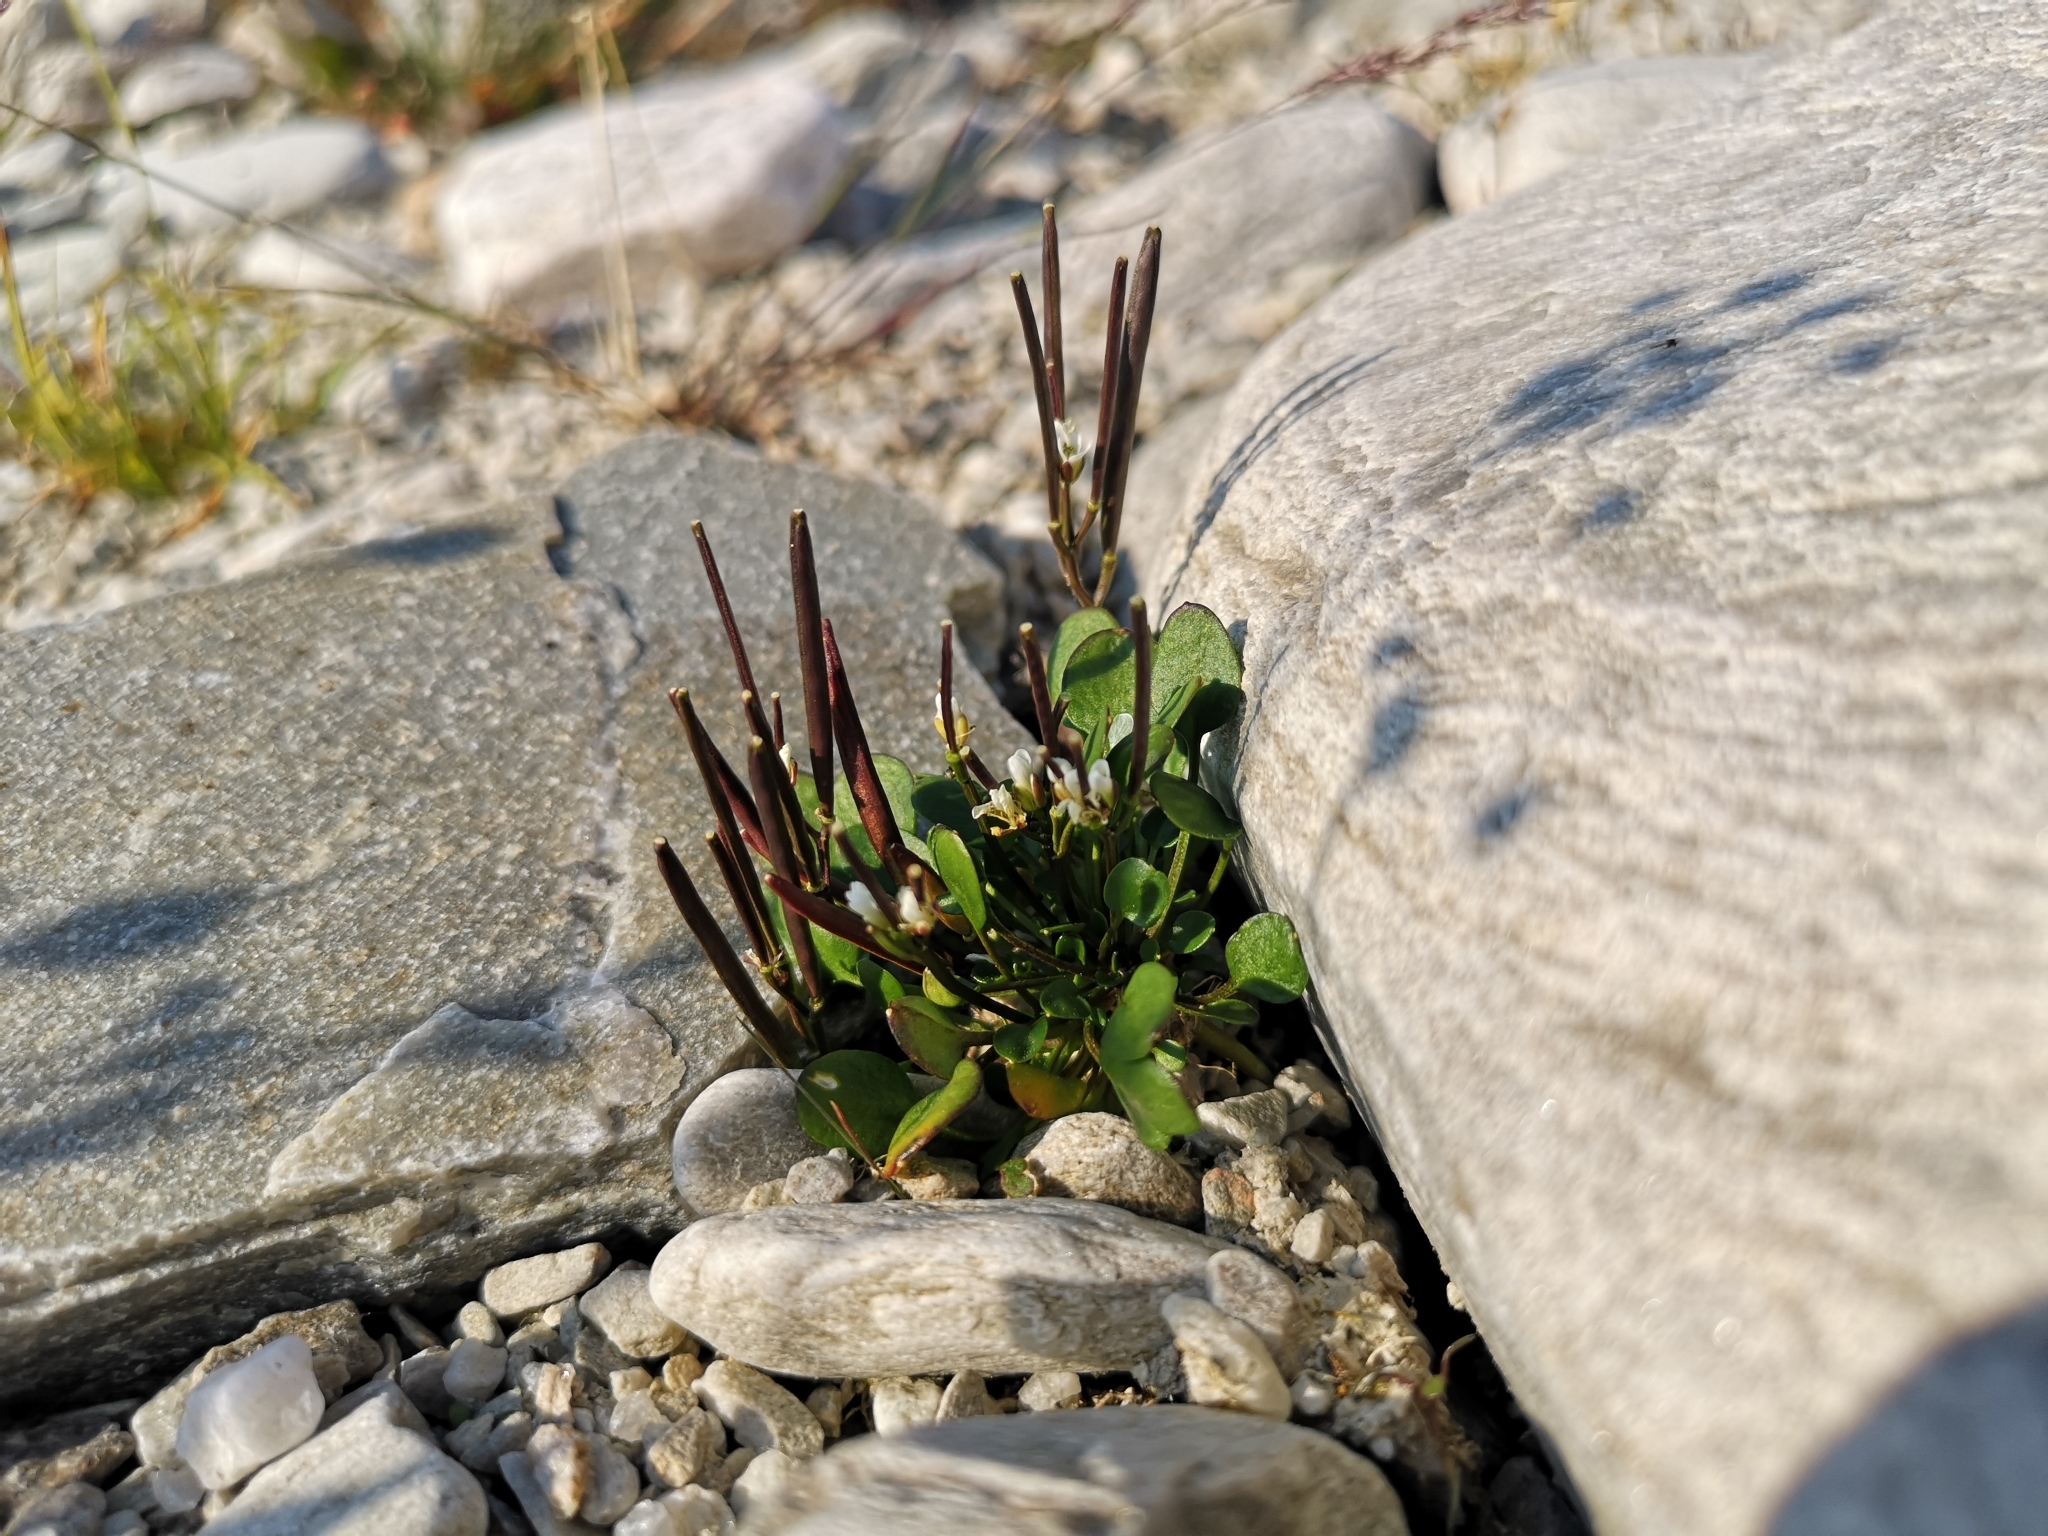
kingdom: Plantae
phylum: Tracheophyta
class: Magnoliopsida
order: Brassicales
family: Brassicaceae
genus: Cardamine
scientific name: Cardamine bellidifolia
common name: Alpine bittercress
